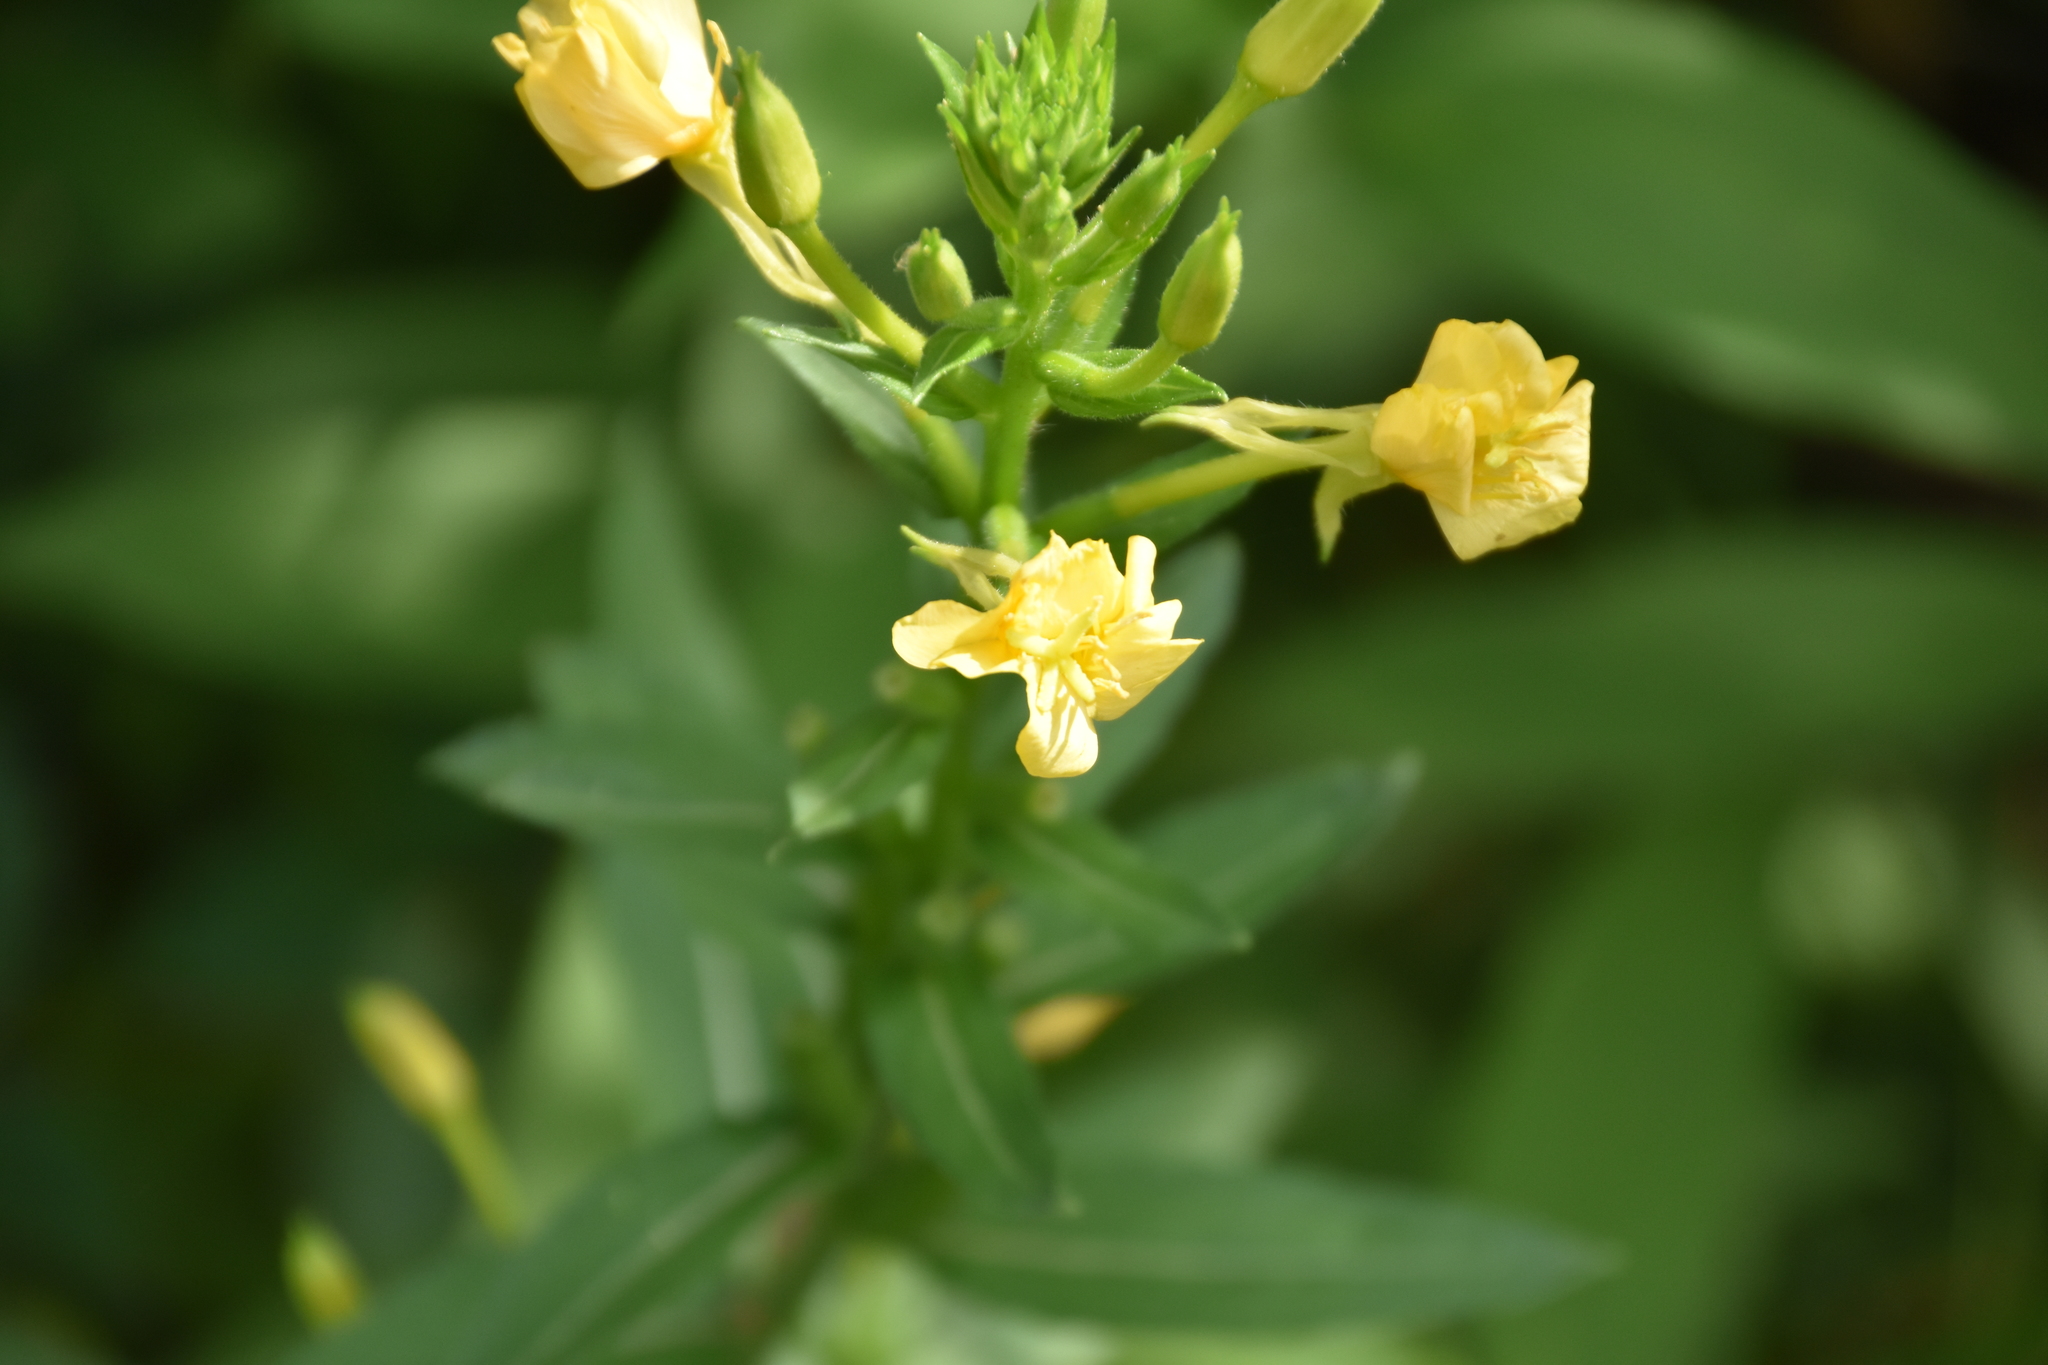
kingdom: Plantae
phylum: Tracheophyta
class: Magnoliopsida
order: Myrtales
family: Onagraceae
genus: Oenothera
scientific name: Oenothera biennis
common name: Common evening-primrose
